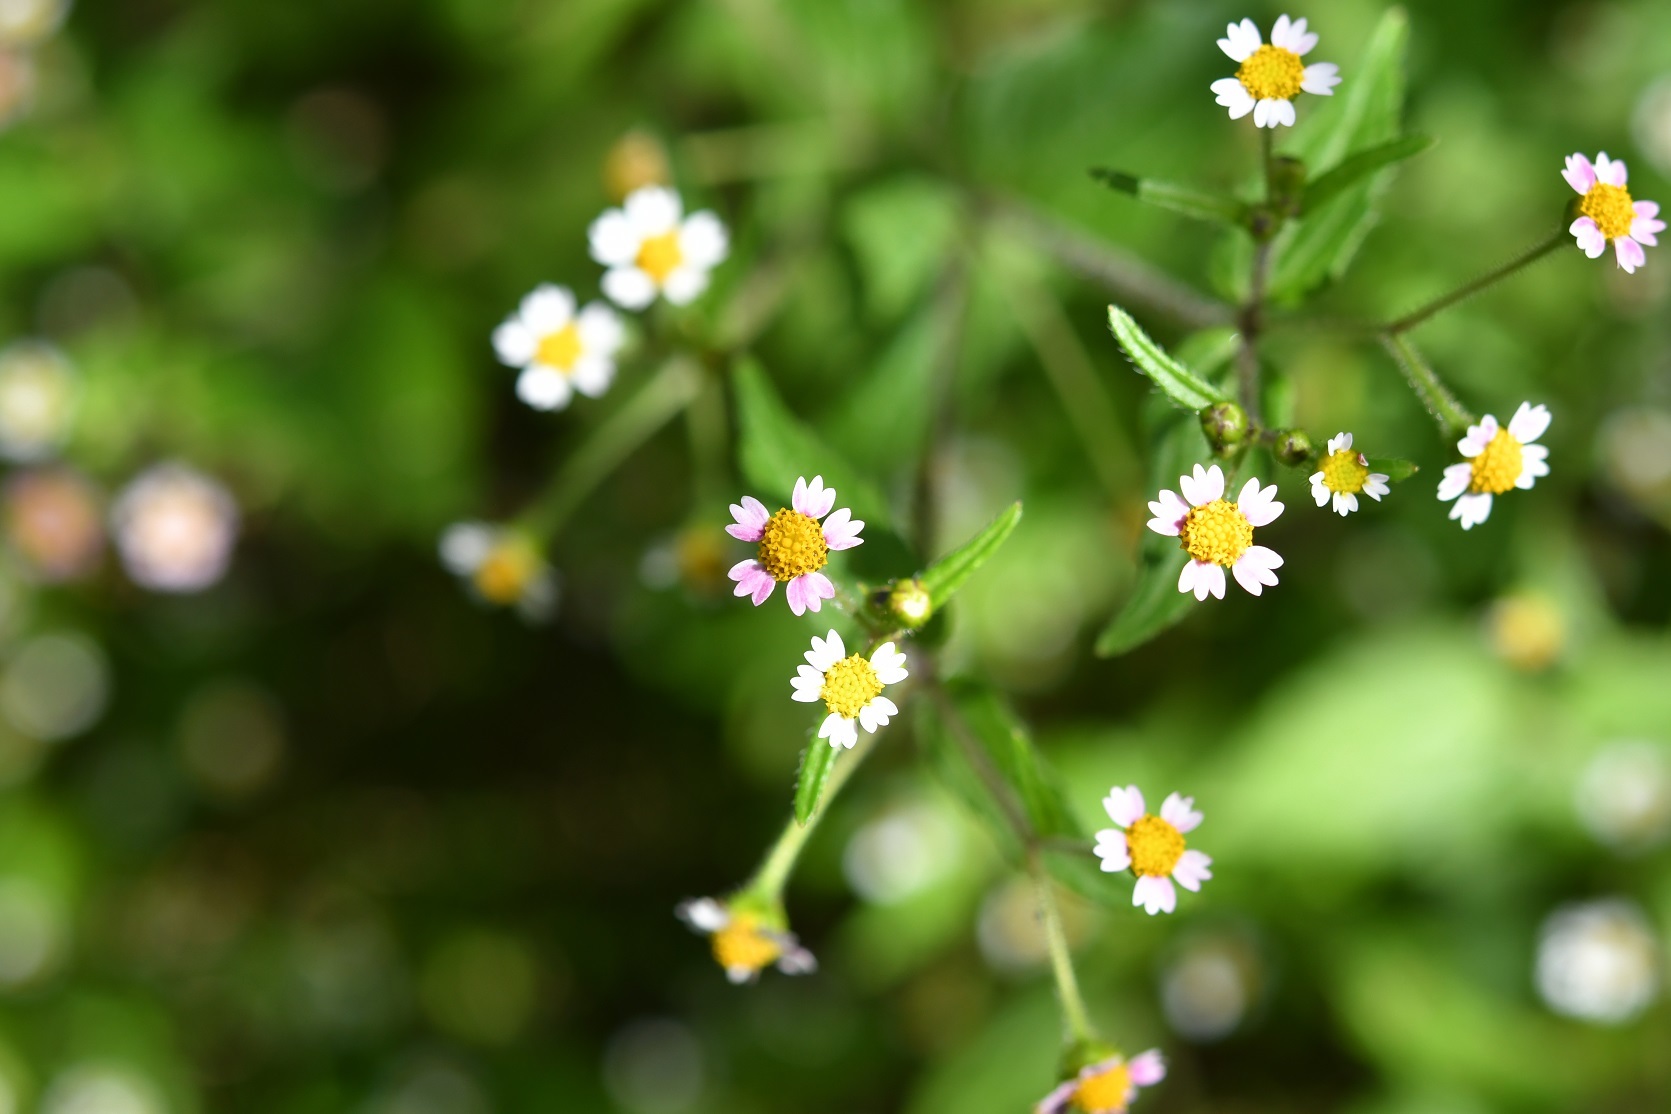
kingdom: Plantae
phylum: Tracheophyta
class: Magnoliopsida
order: Asterales
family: Asteraceae
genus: Galinsoga
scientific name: Galinsoga quadriradiata
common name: Shaggy soldier
